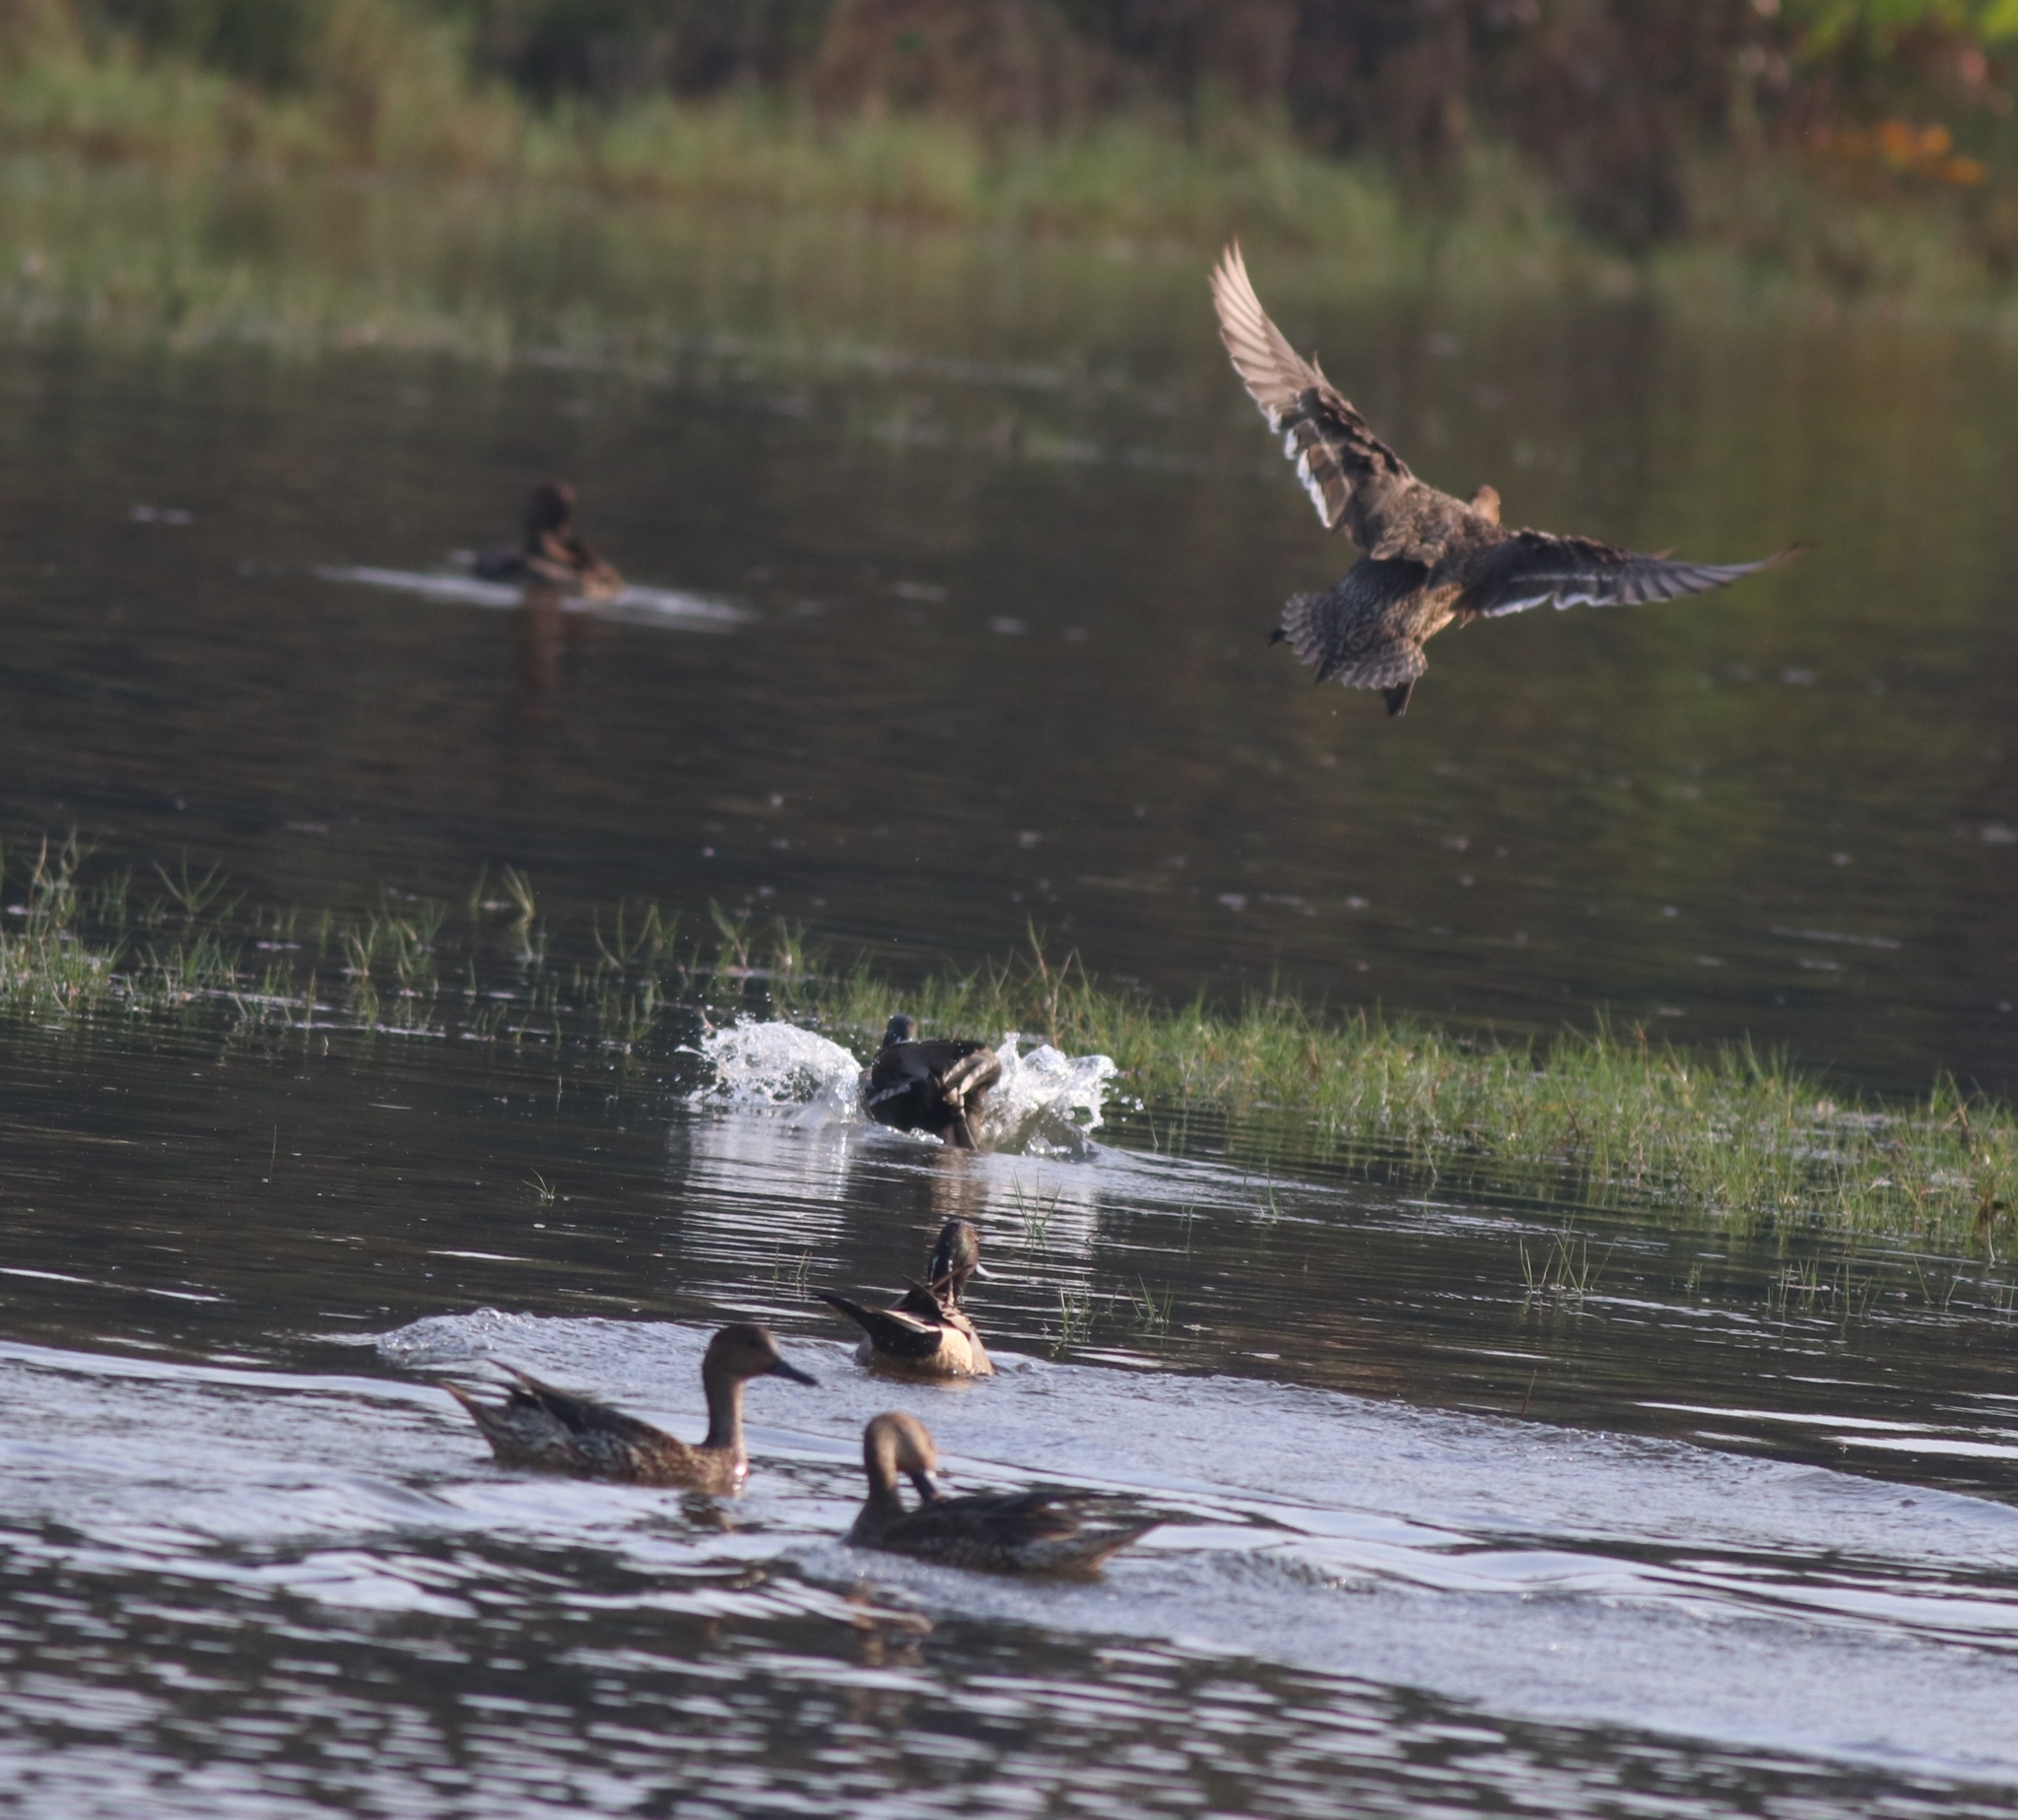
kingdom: Animalia
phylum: Chordata
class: Aves
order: Anseriformes
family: Anatidae
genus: Anas
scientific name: Anas acuta
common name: Northern pintail
